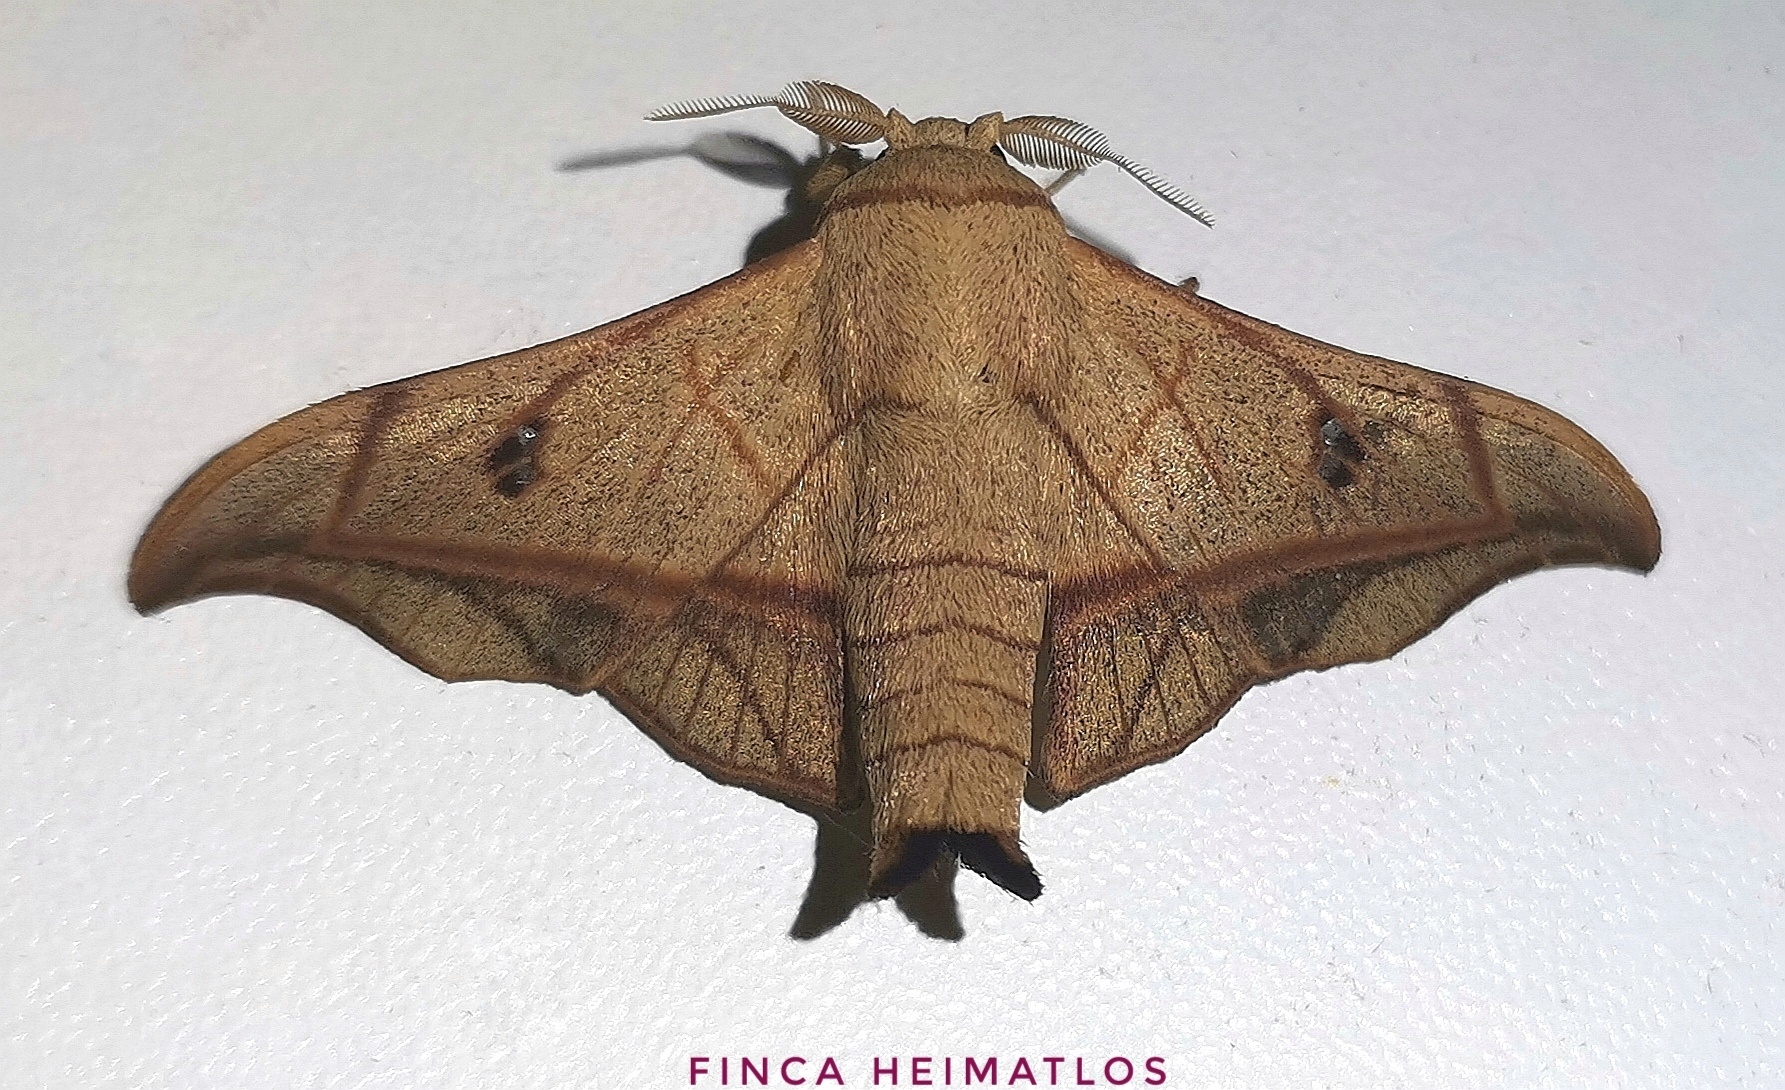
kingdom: Animalia
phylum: Arthropoda
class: Insecta
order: Lepidoptera
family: Mimallonidae
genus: Cicinnus
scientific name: Cicinnus forbesi
